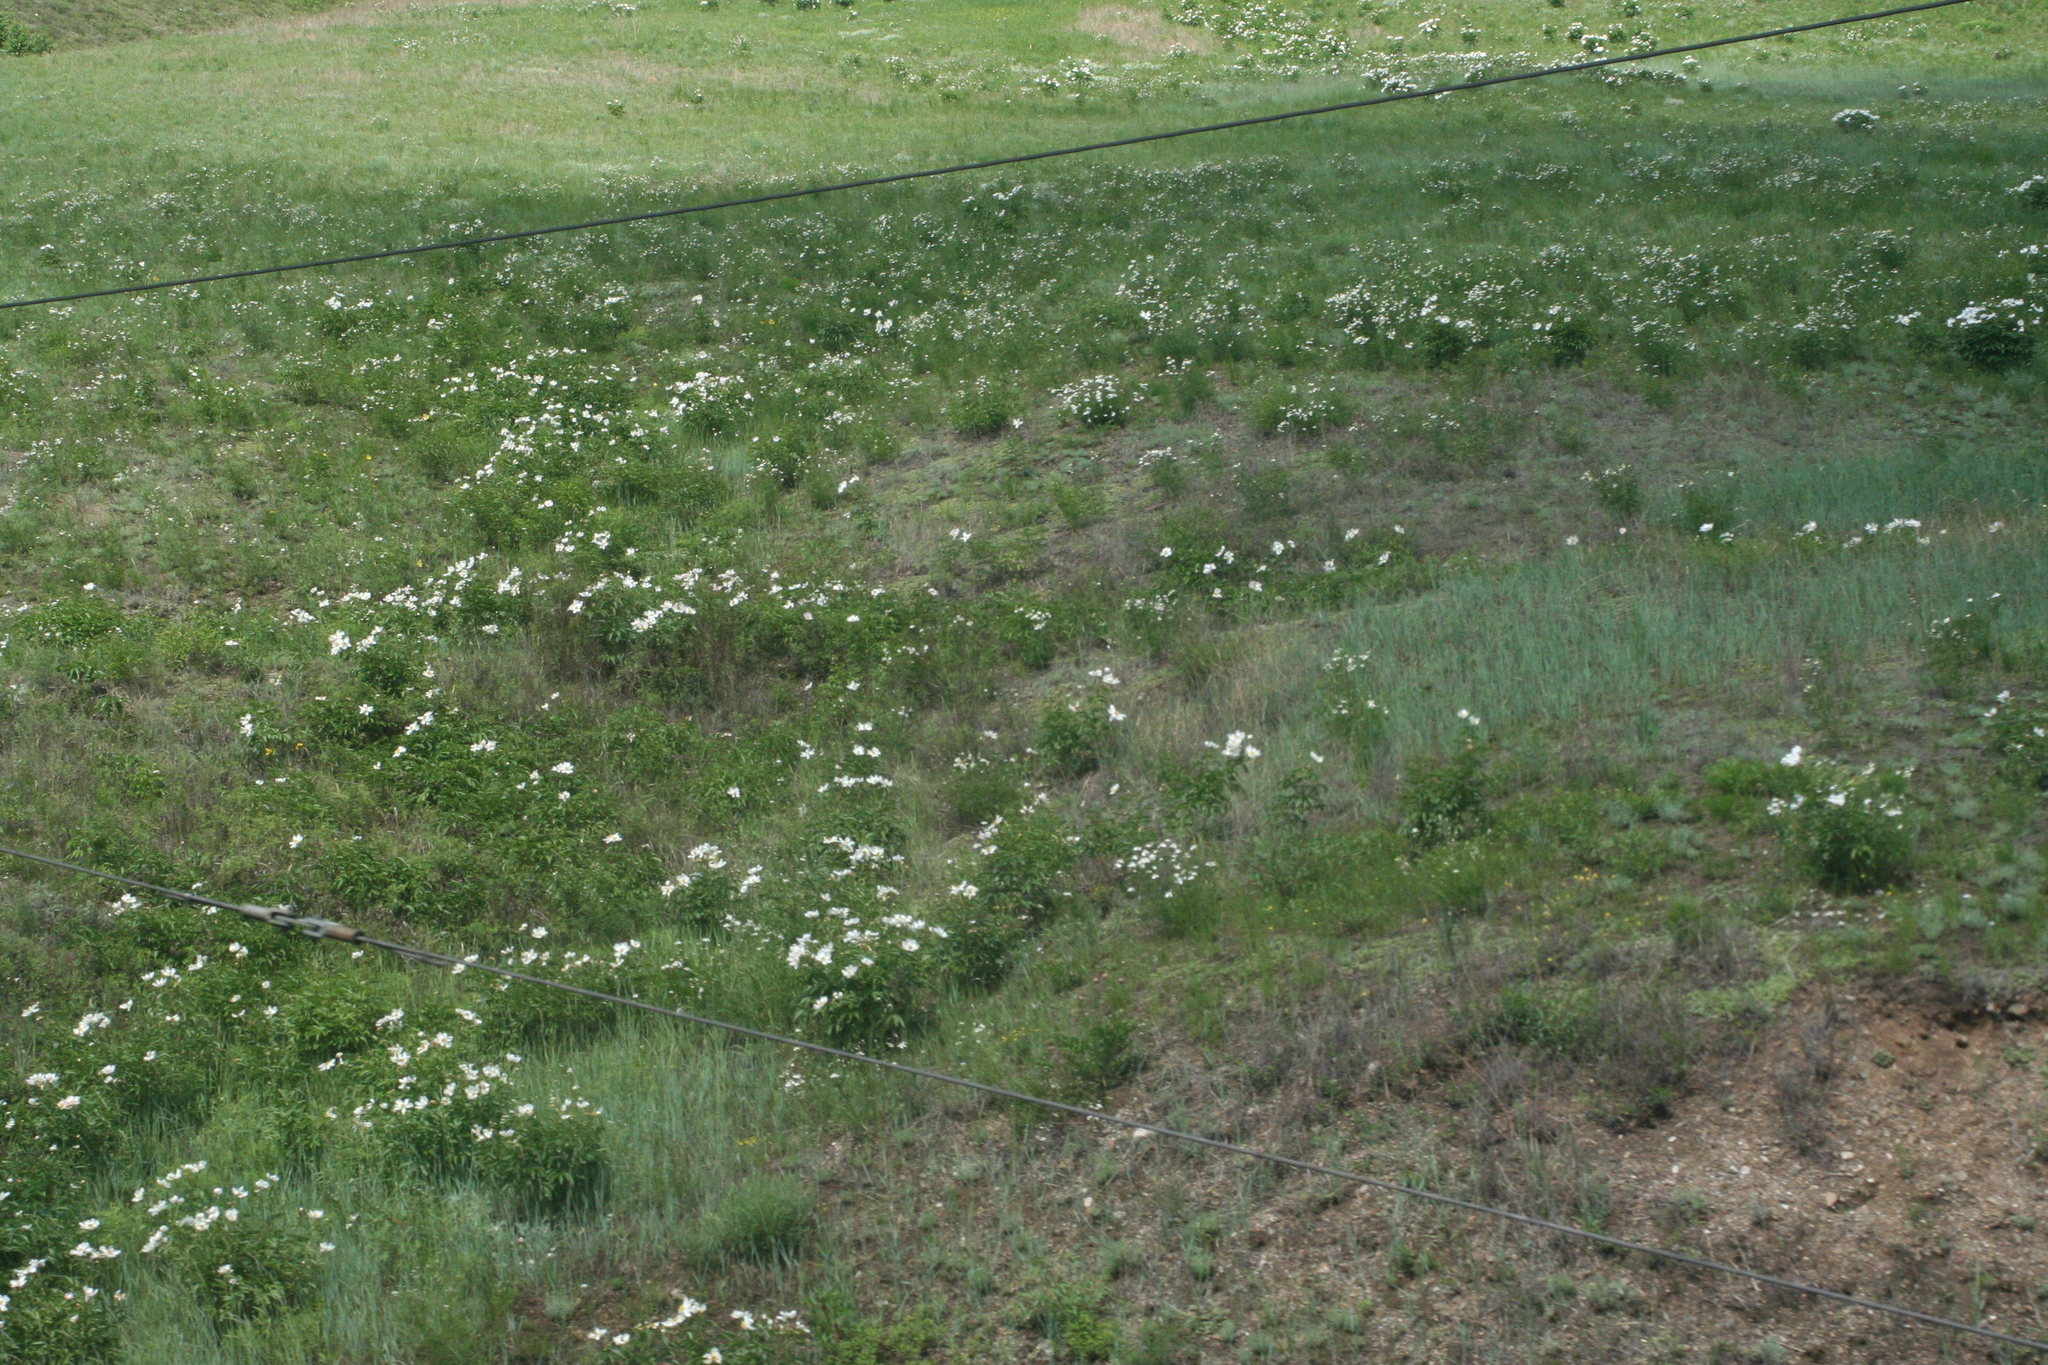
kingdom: Plantae
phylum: Tracheophyta
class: Magnoliopsida
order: Saxifragales
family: Paeoniaceae
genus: Paeonia
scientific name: Paeonia lactiflora
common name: Chinese peony
